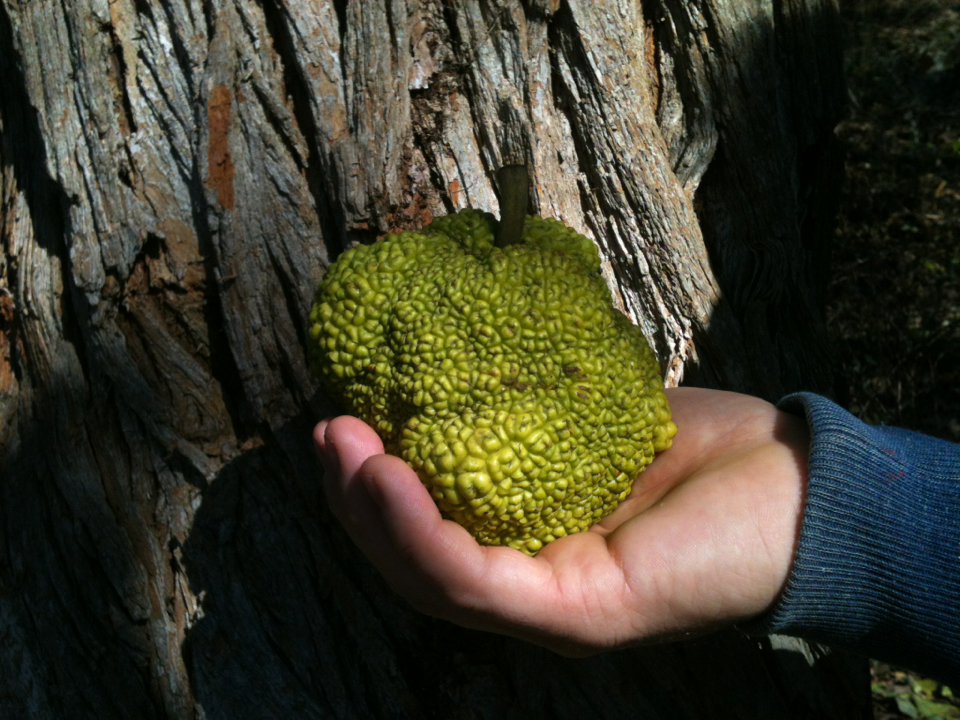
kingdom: Plantae
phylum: Tracheophyta
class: Magnoliopsida
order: Rosales
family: Moraceae
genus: Maclura
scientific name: Maclura pomifera
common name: Osage-orange
